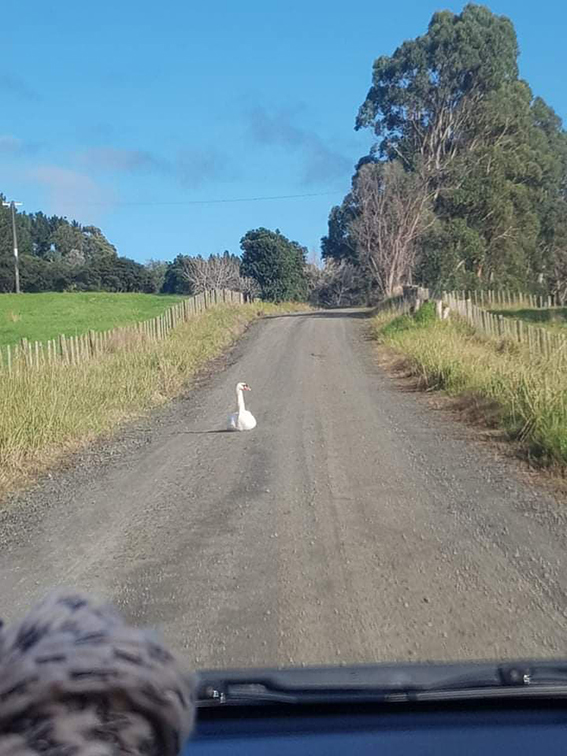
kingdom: Animalia
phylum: Chordata
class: Aves
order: Anseriformes
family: Anatidae
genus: Cygnus
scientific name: Cygnus olor
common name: Mute swan
